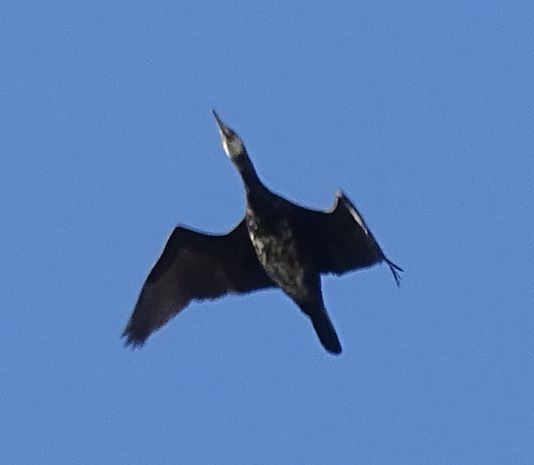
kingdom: Animalia
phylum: Chordata
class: Aves
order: Suliformes
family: Phalacrocoracidae
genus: Phalacrocorax
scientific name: Phalacrocorax carbo
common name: Great cormorant
